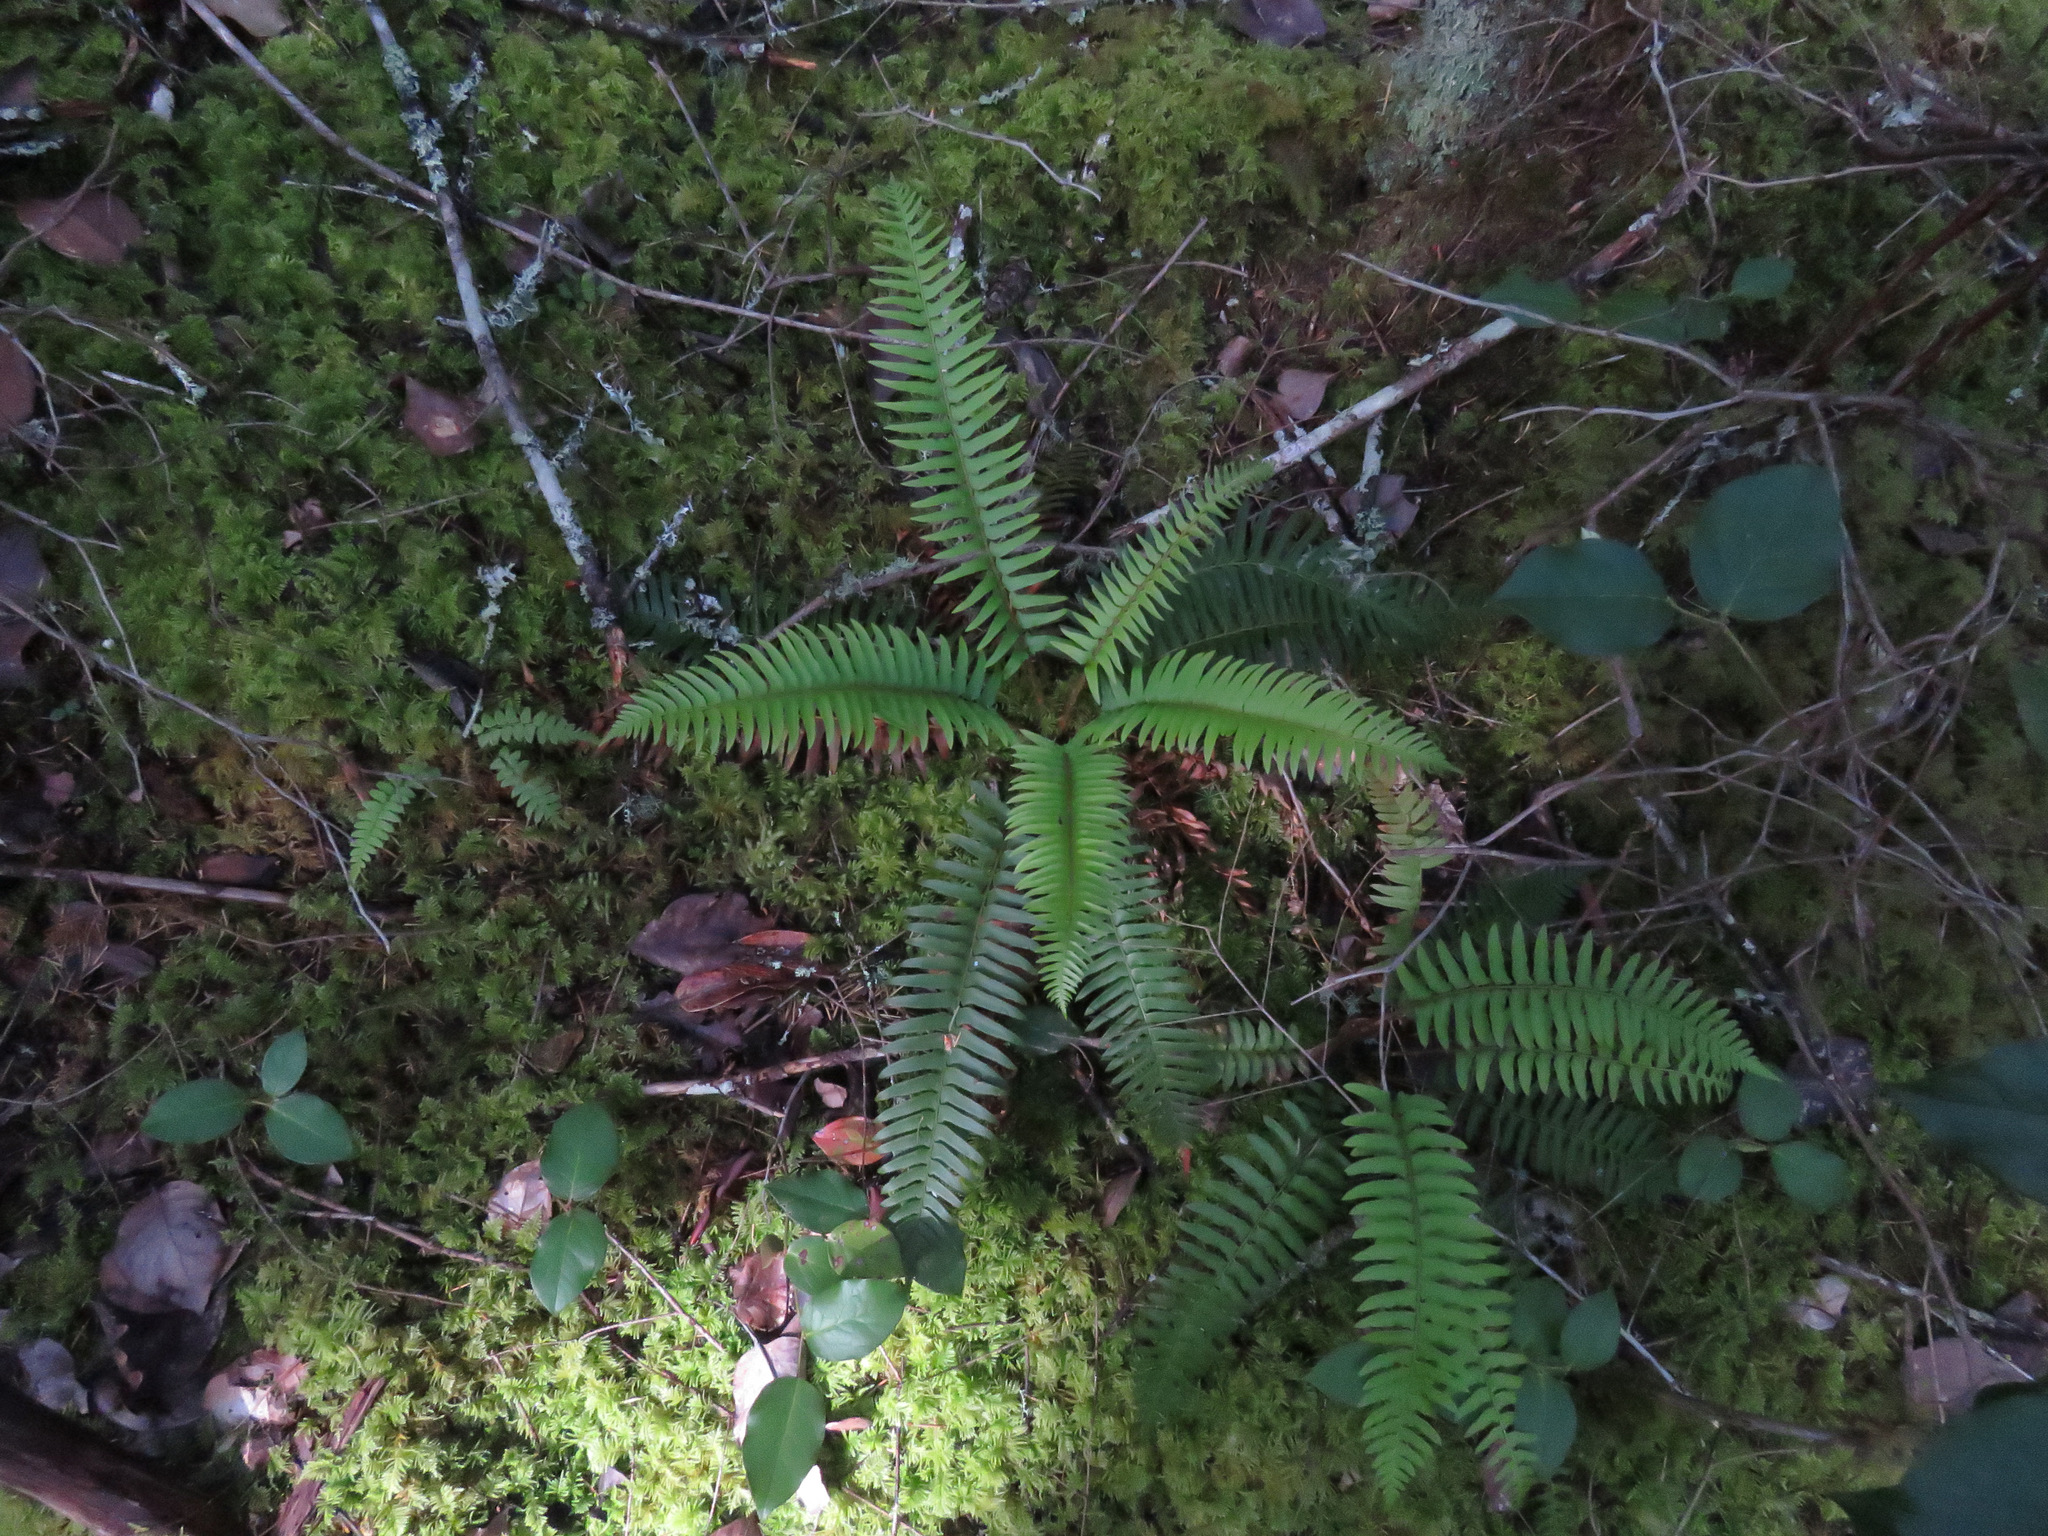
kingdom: Plantae
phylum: Tracheophyta
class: Polypodiopsida
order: Polypodiales
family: Dryopteridaceae
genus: Polystichum
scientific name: Polystichum munitum
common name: Western sword-fern
